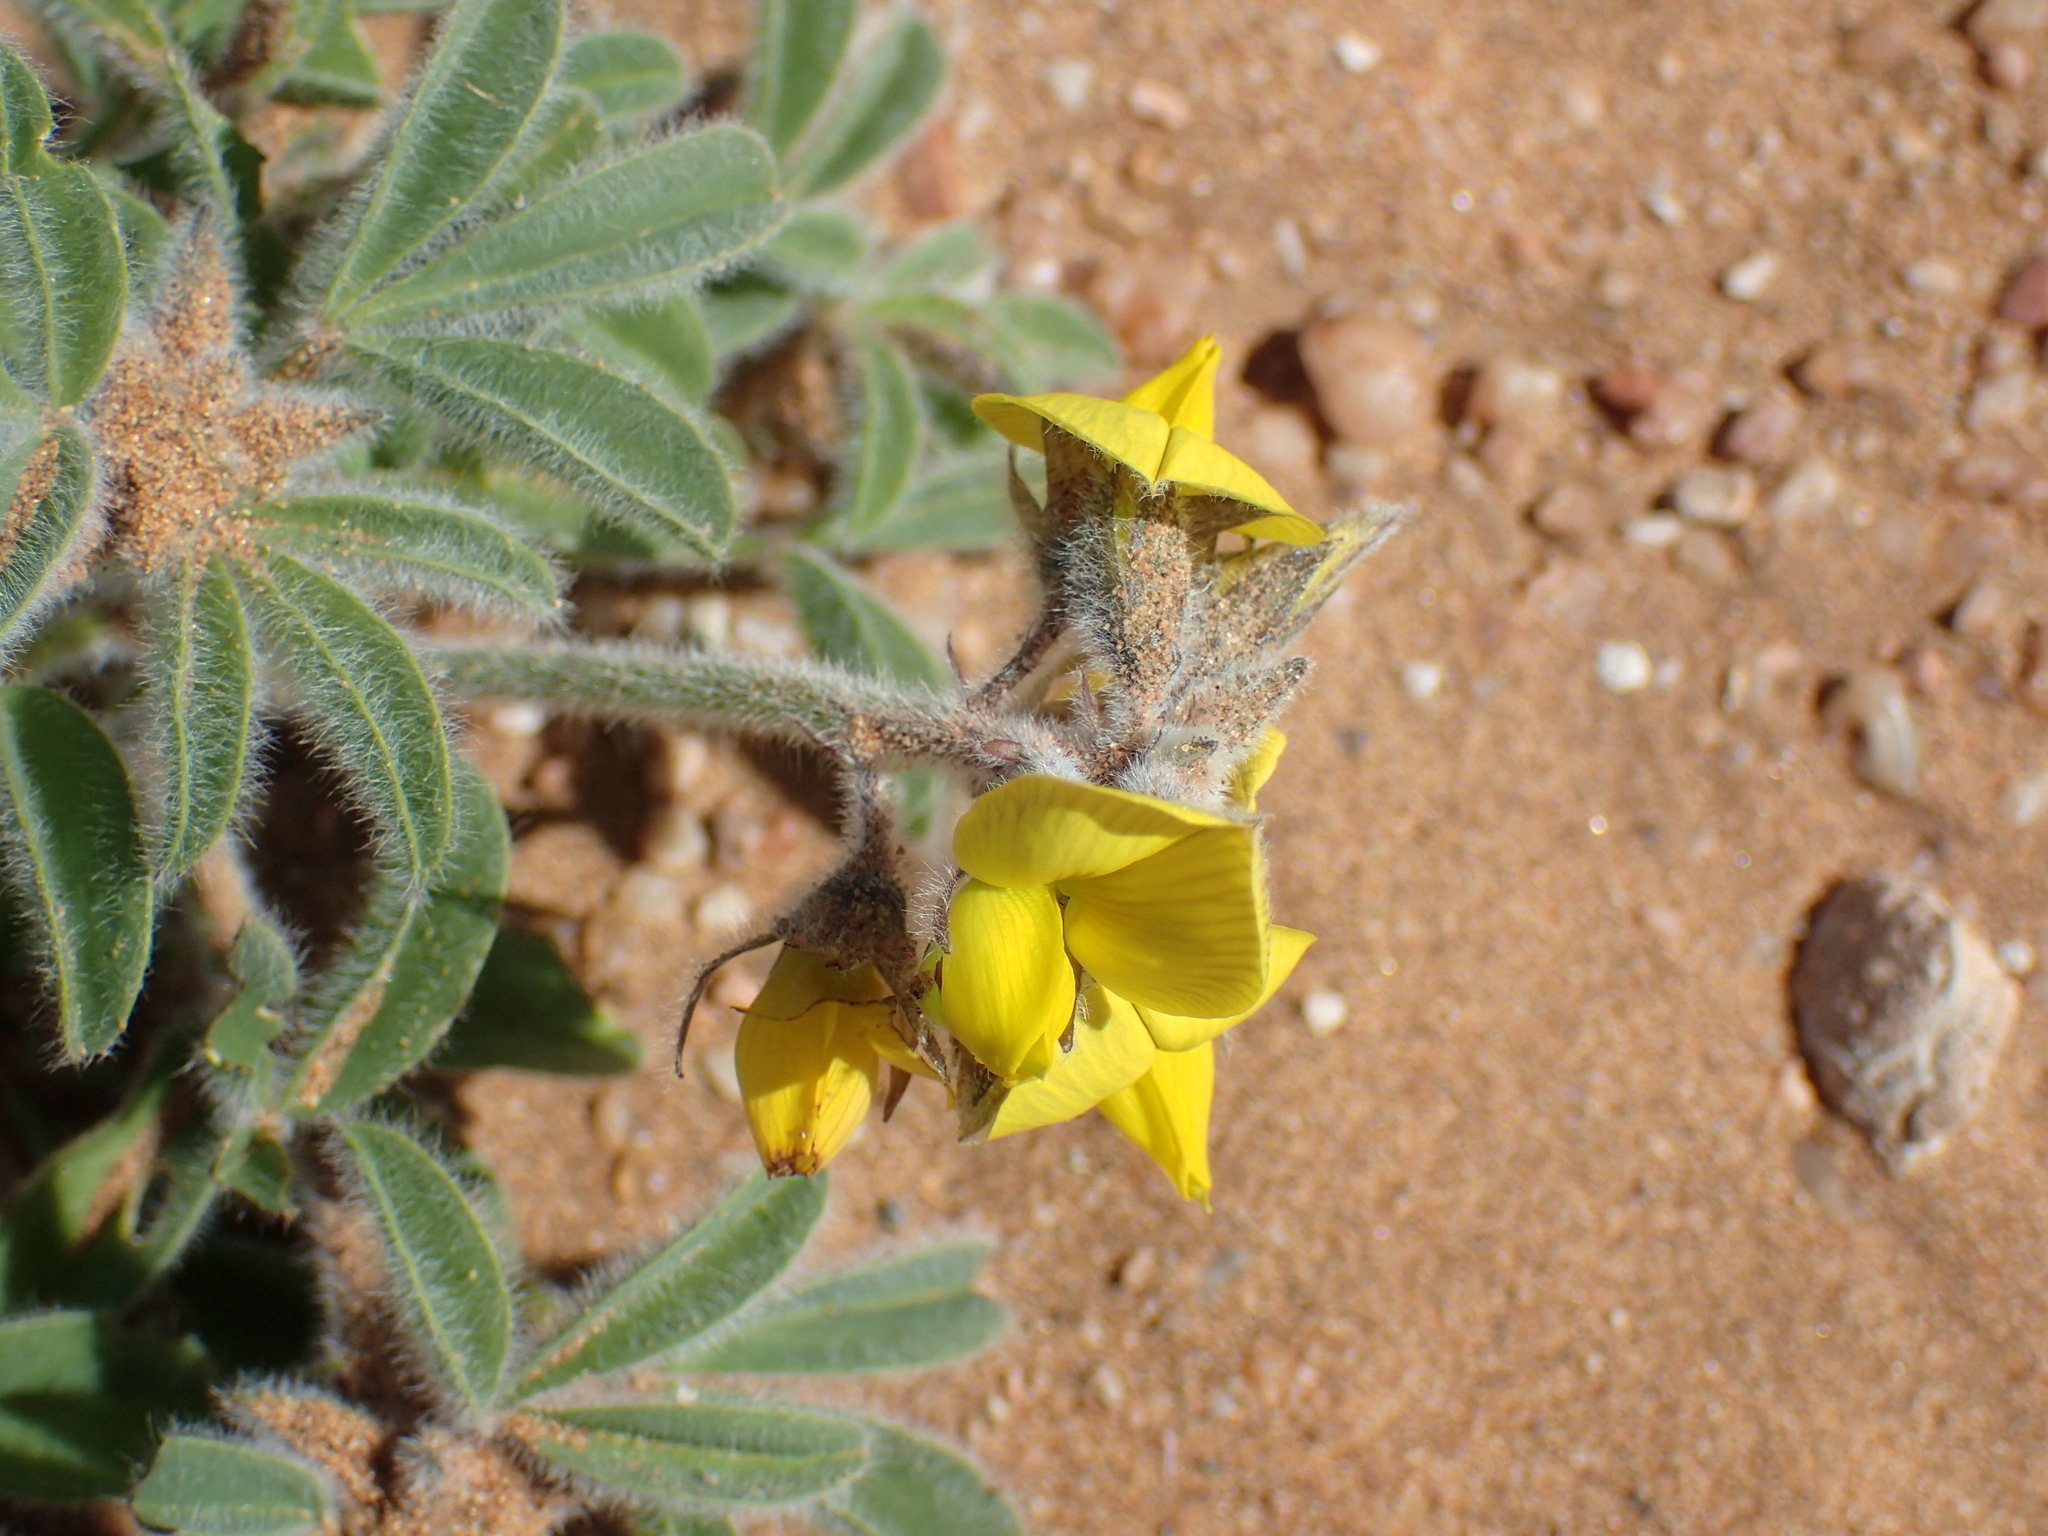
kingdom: Plantae
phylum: Tracheophyta
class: Magnoliopsida
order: Fabales
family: Fabaceae
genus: Crotalaria
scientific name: Crotalaria meyeriana
